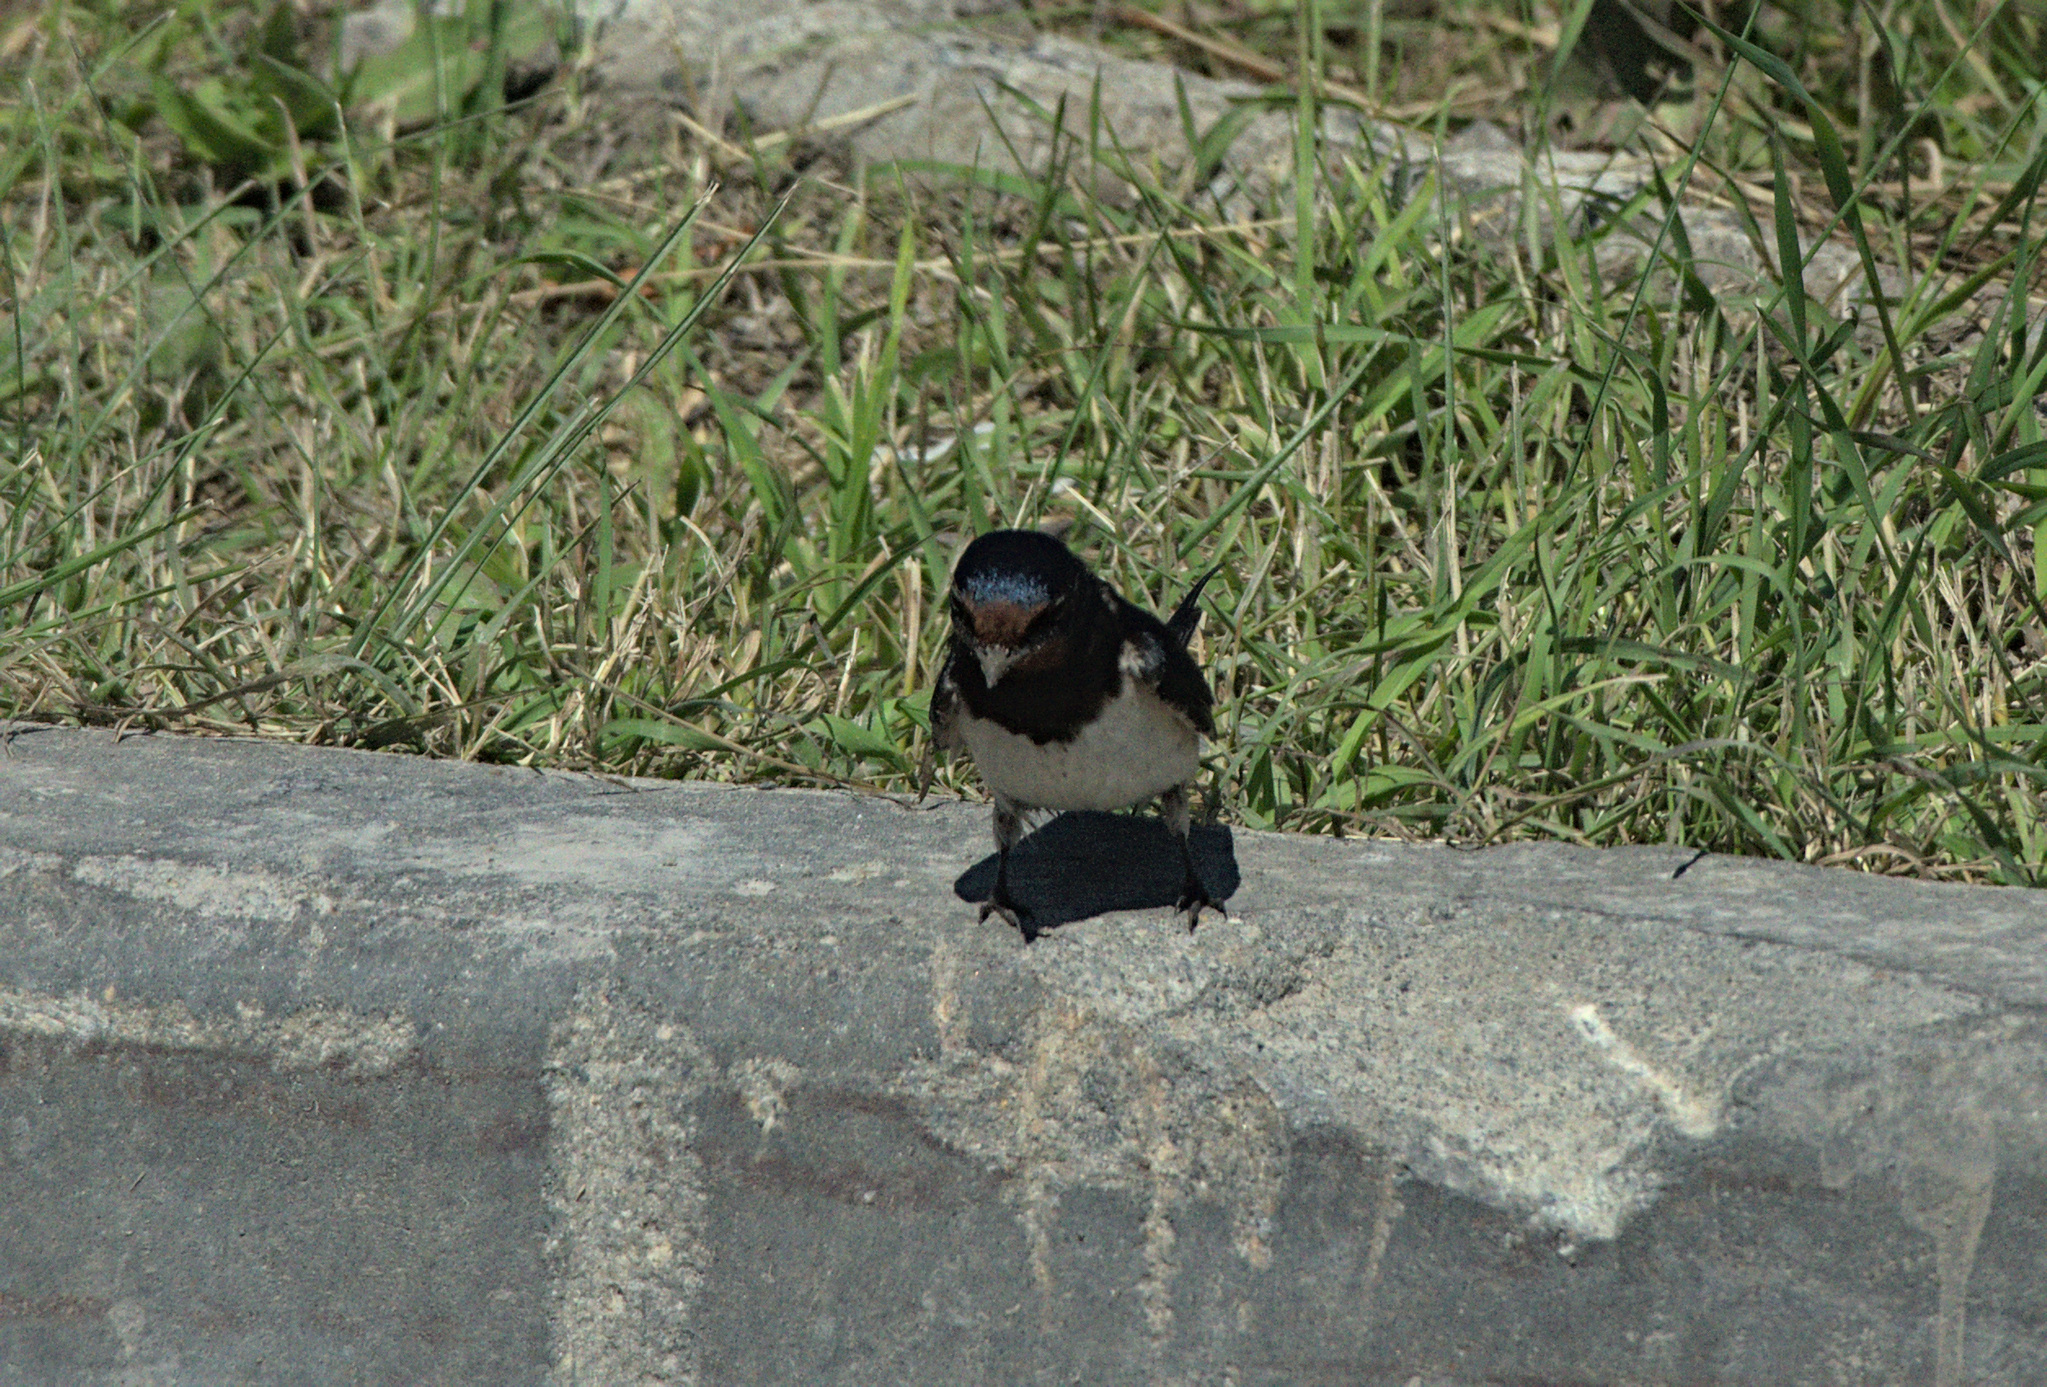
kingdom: Animalia
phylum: Chordata
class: Aves
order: Passeriformes
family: Hirundinidae
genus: Hirundo
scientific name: Hirundo rustica
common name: Barn swallow
